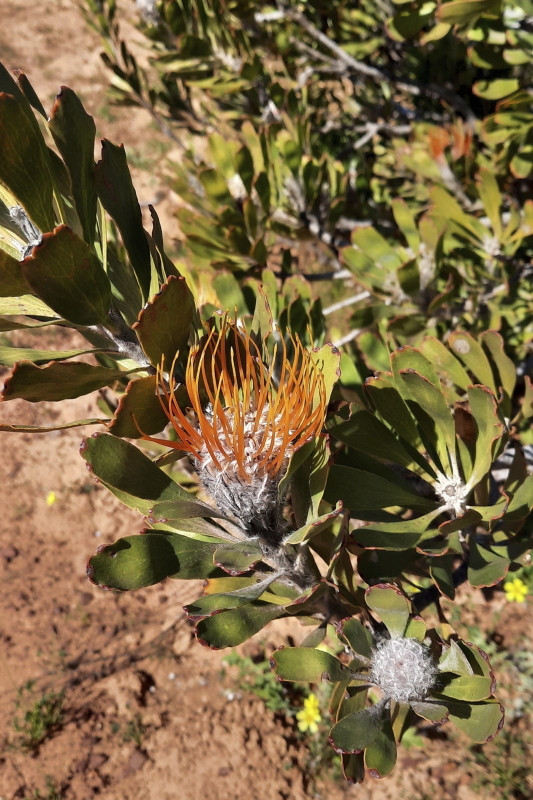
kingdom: Plantae
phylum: Tracheophyta
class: Magnoliopsida
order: Proteales
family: Proteaceae
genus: Leucospermum
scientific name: Leucospermum praemorsum
